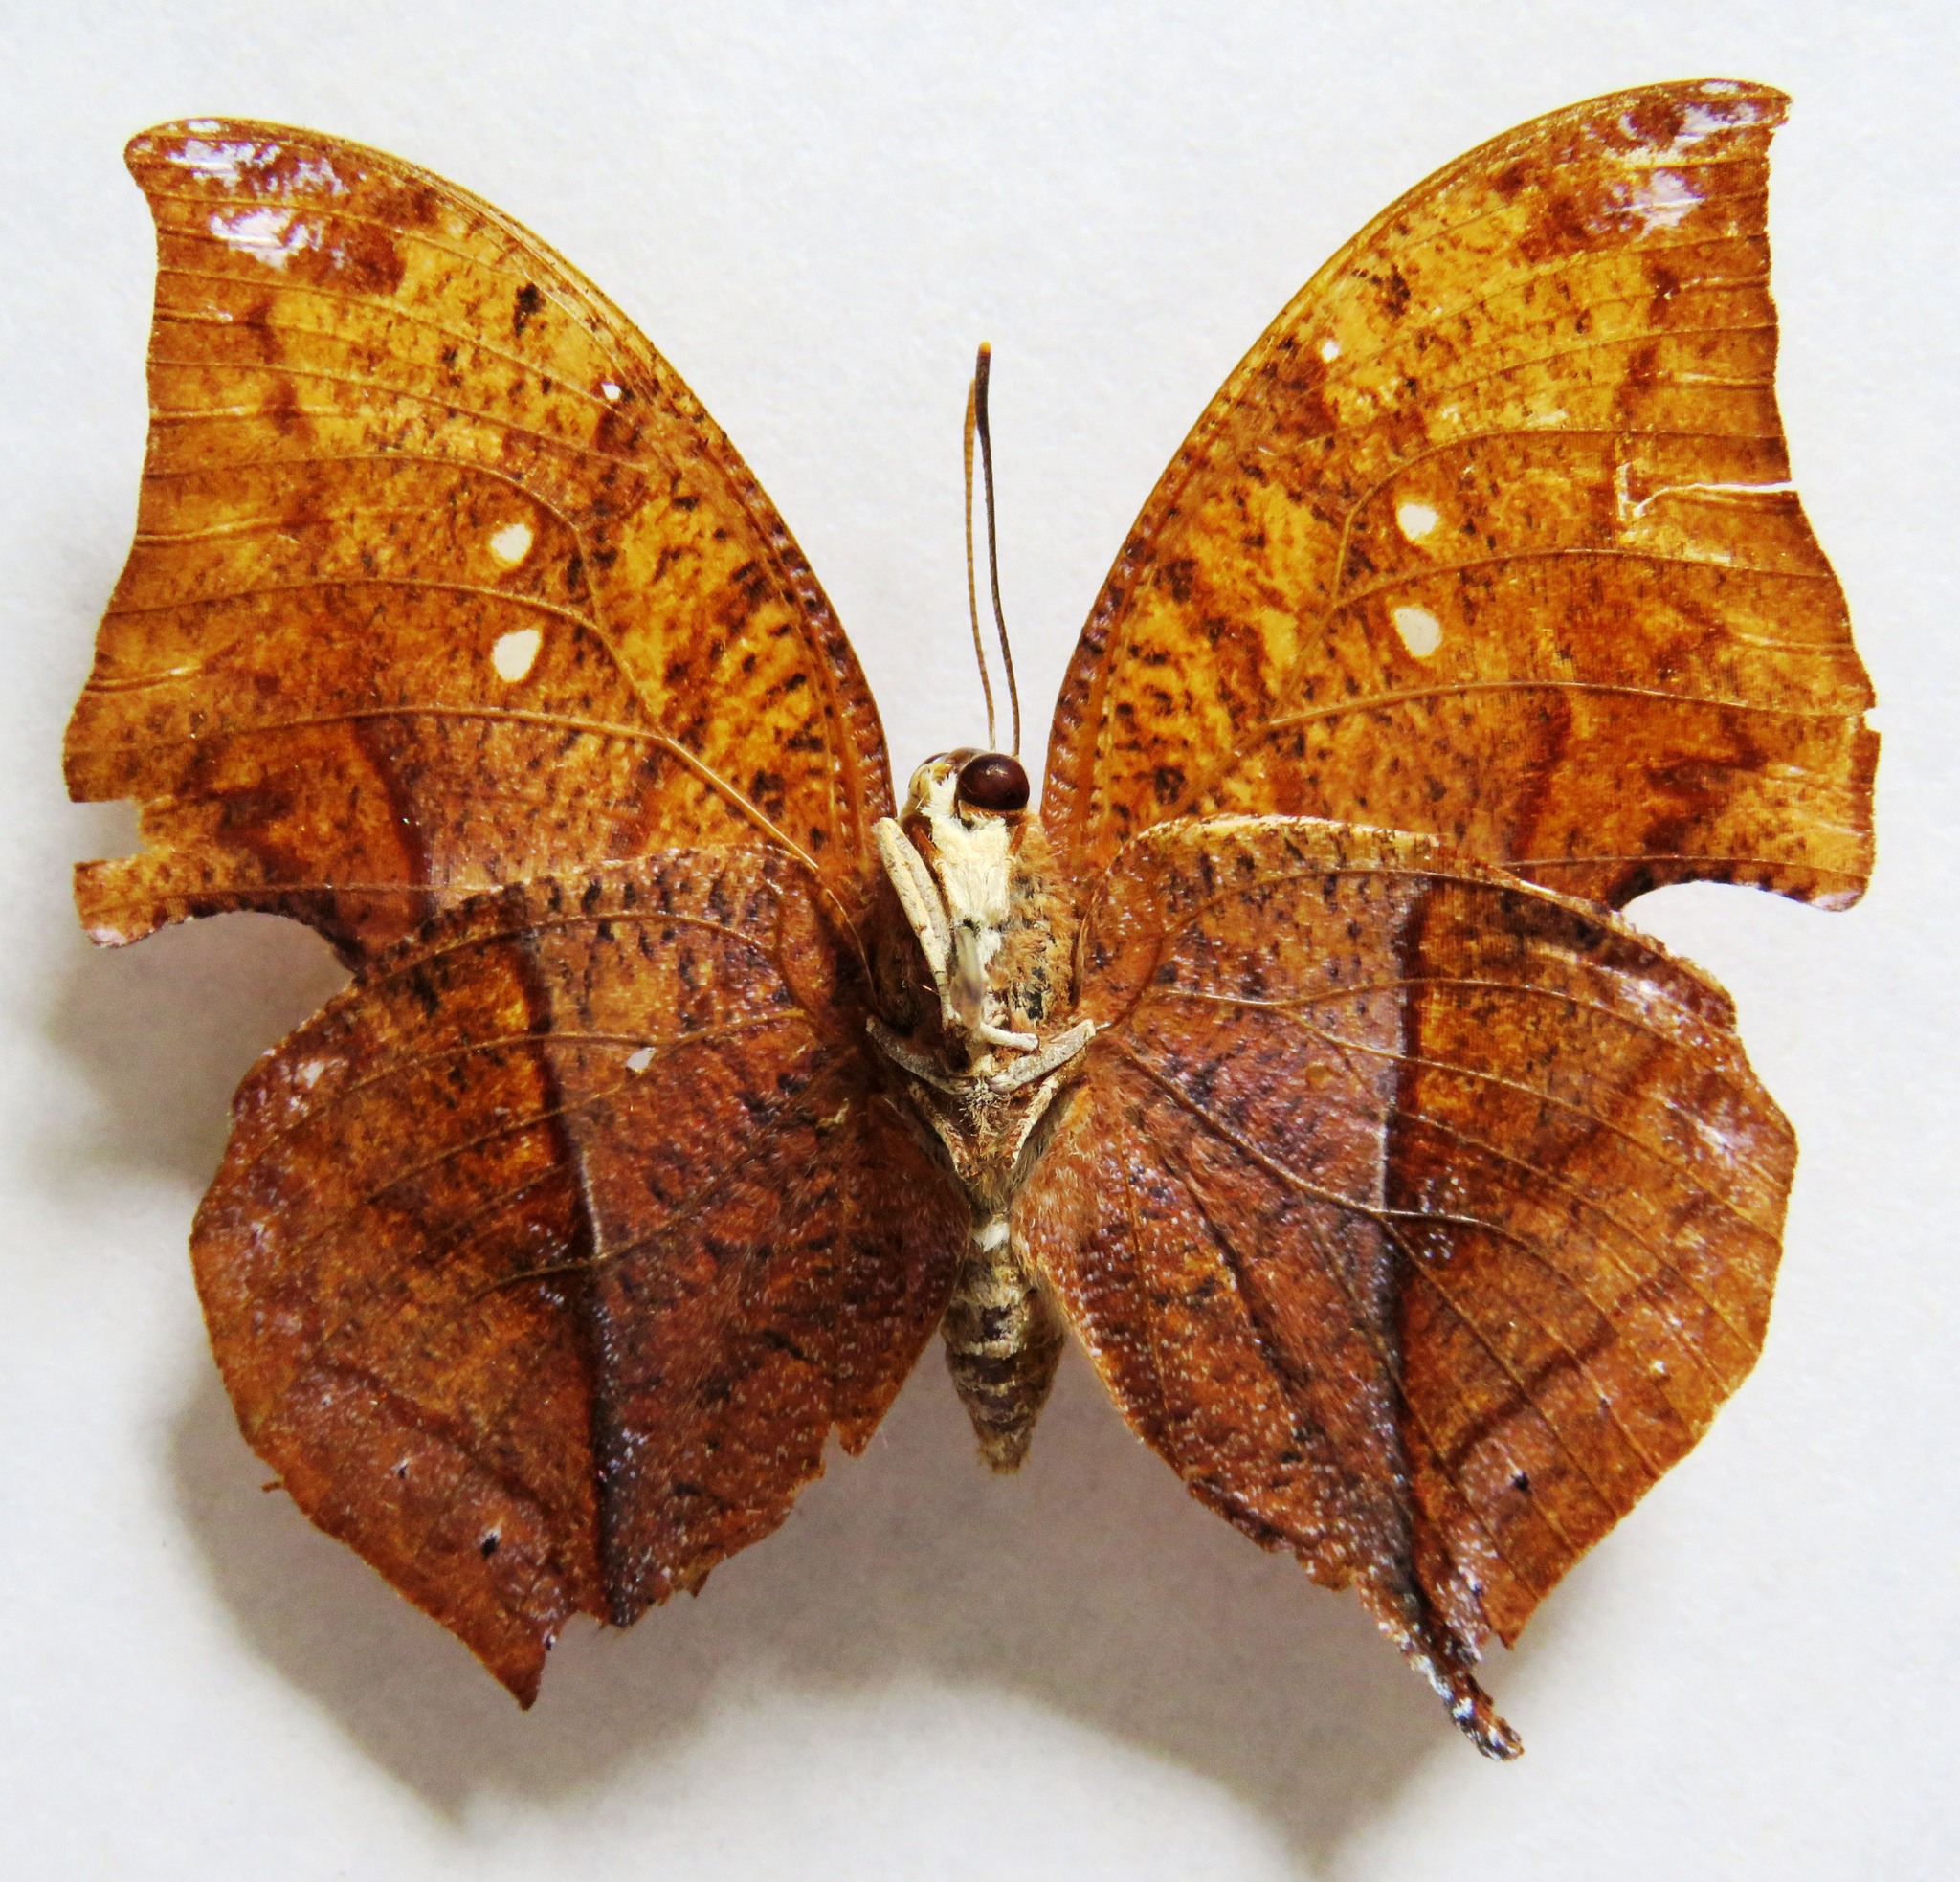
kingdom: Animalia
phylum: Arthropoda
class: Insecta
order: Lepidoptera
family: Nymphalidae
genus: Zaretis
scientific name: Zaretis itys
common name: Skeletonized leafwing
